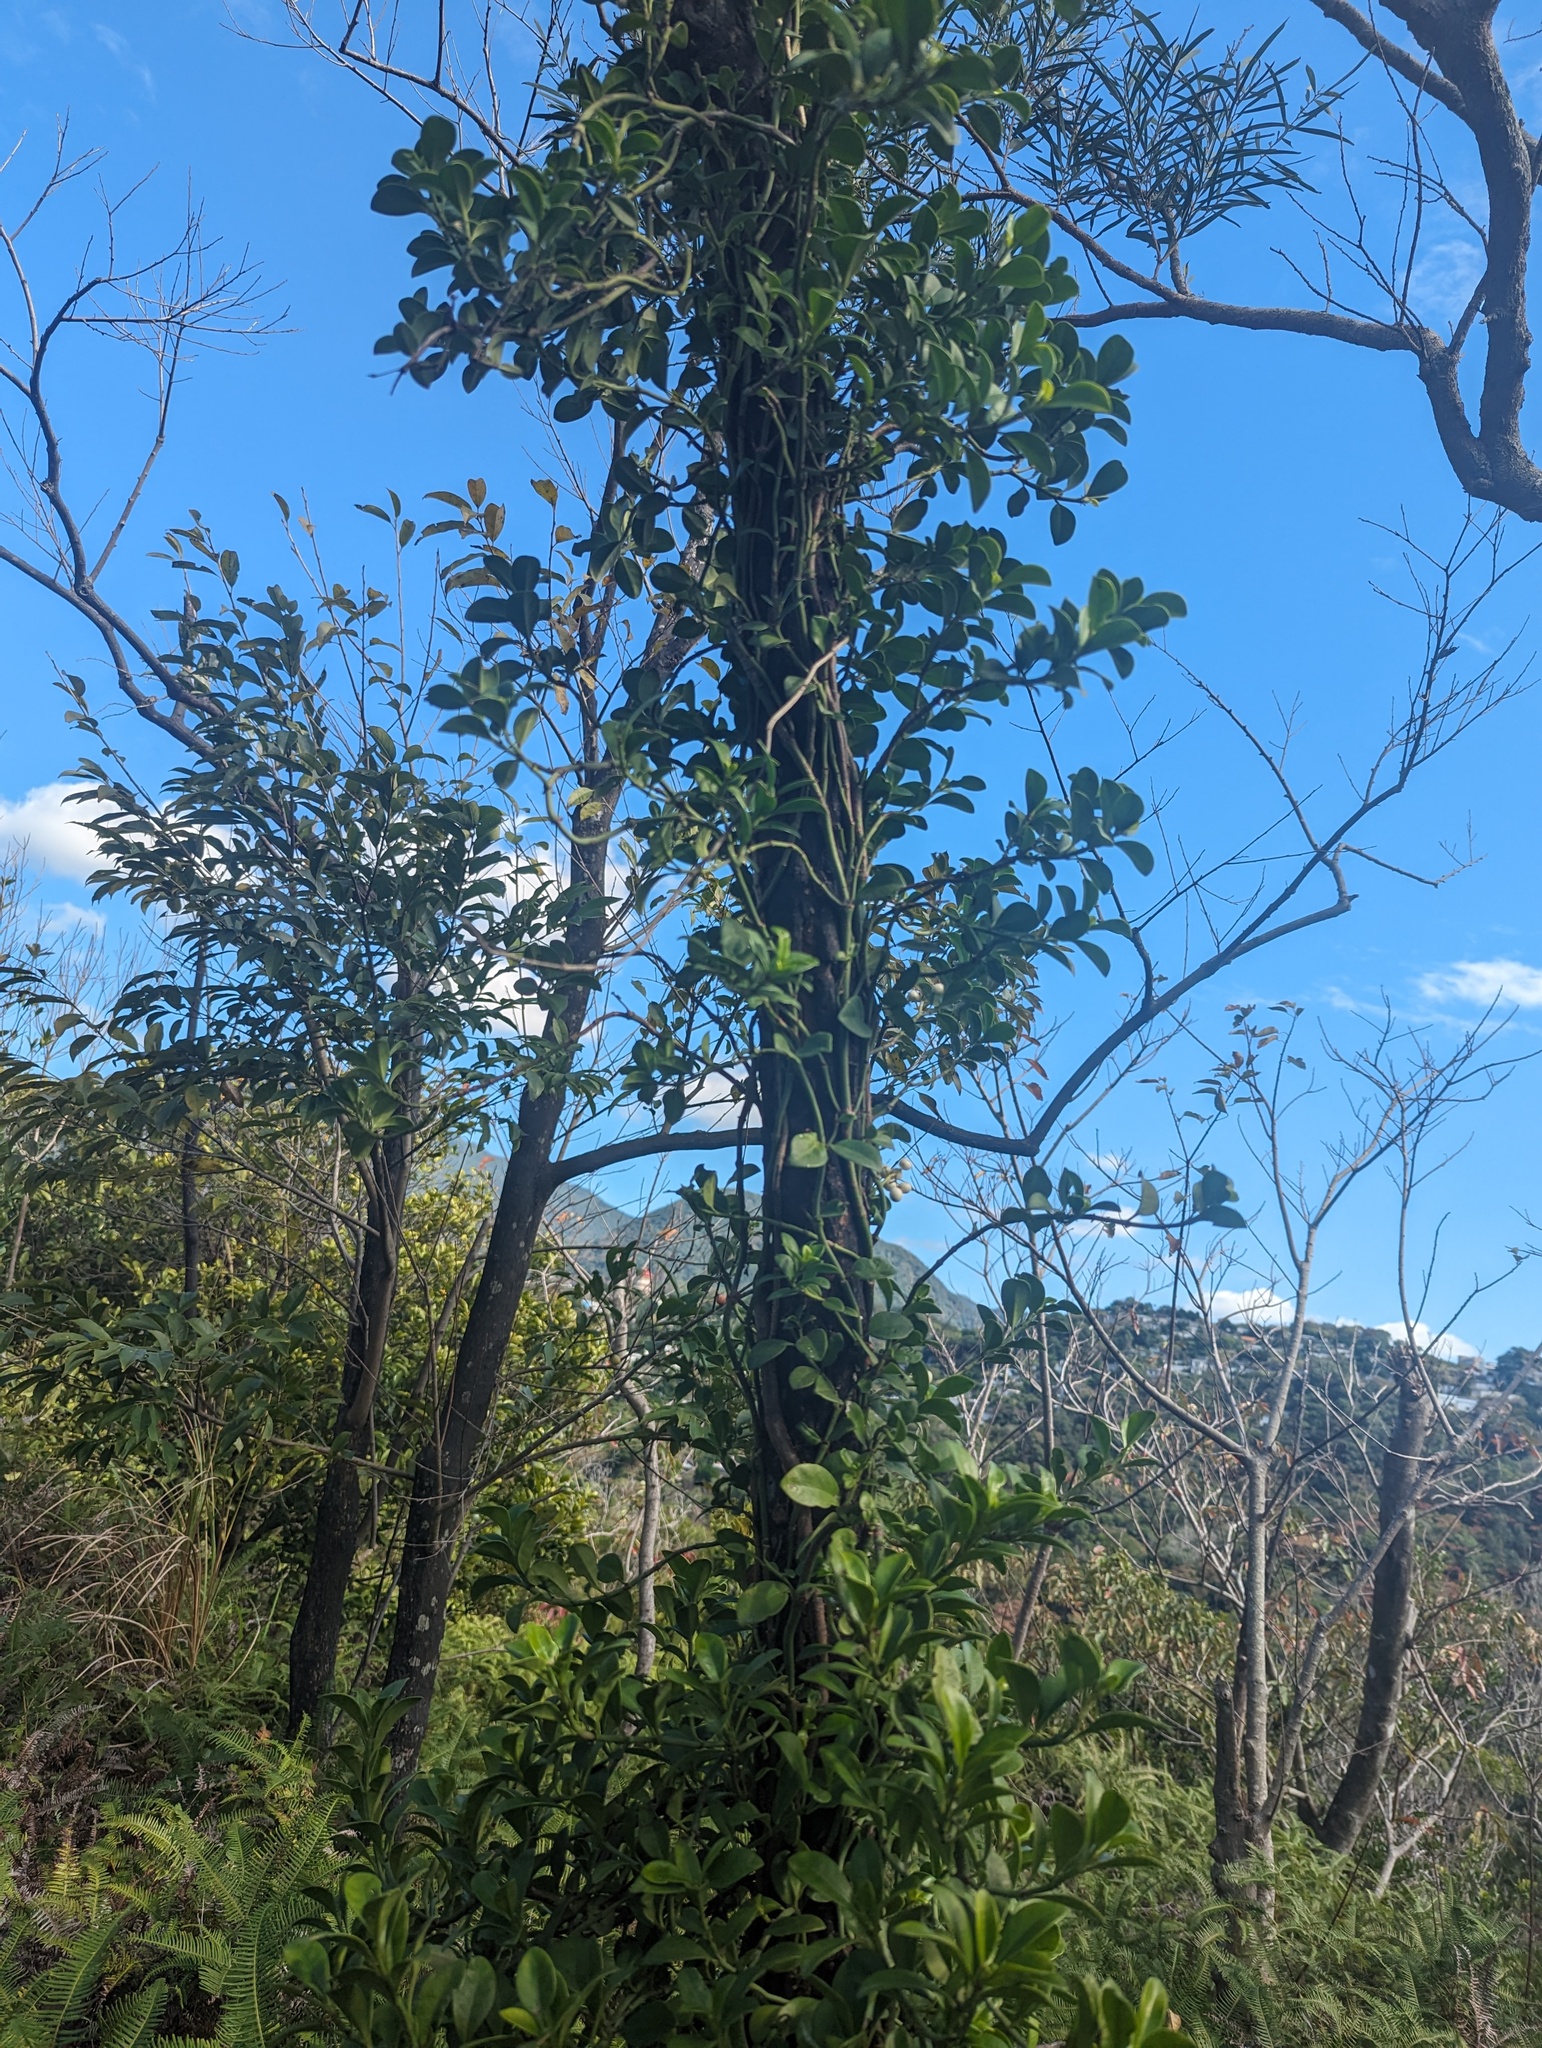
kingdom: Plantae
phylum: Tracheophyta
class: Magnoliopsida
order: Gentianales
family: Rubiaceae
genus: Psychotria
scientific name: Psychotria serpens
